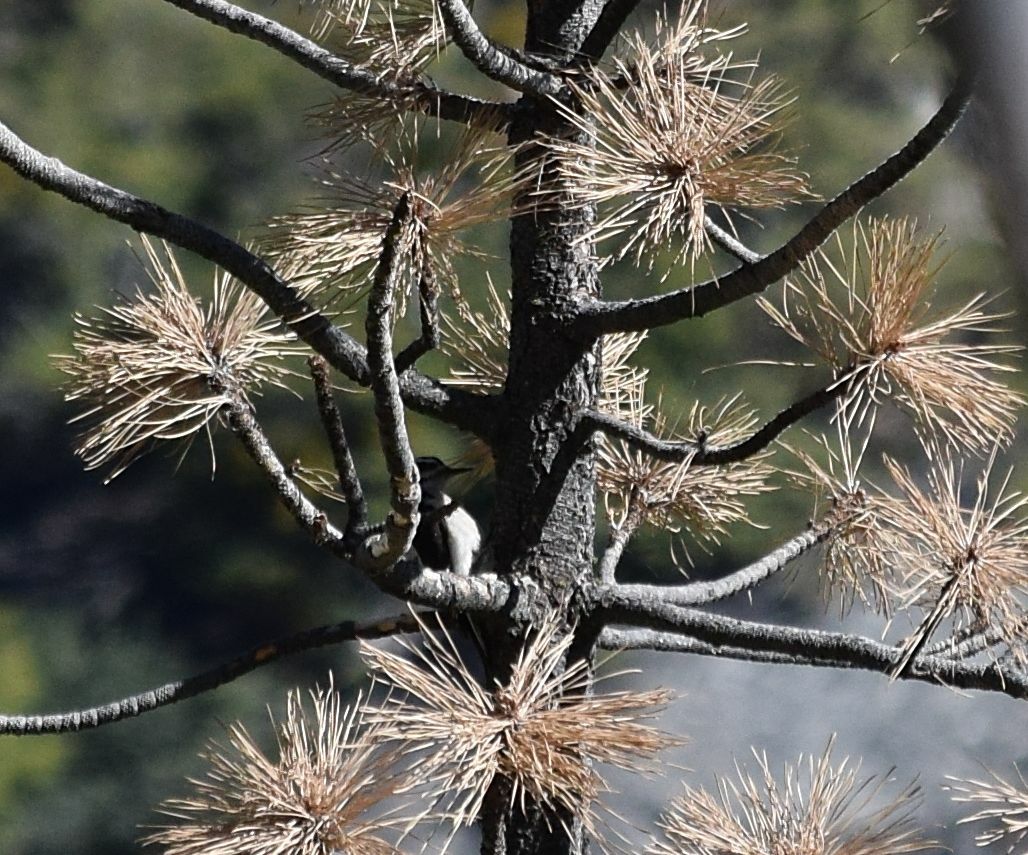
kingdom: Animalia
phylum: Chordata
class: Aves
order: Piciformes
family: Picidae
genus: Leuconotopicus
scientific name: Leuconotopicus villosus
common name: Hairy woodpecker
